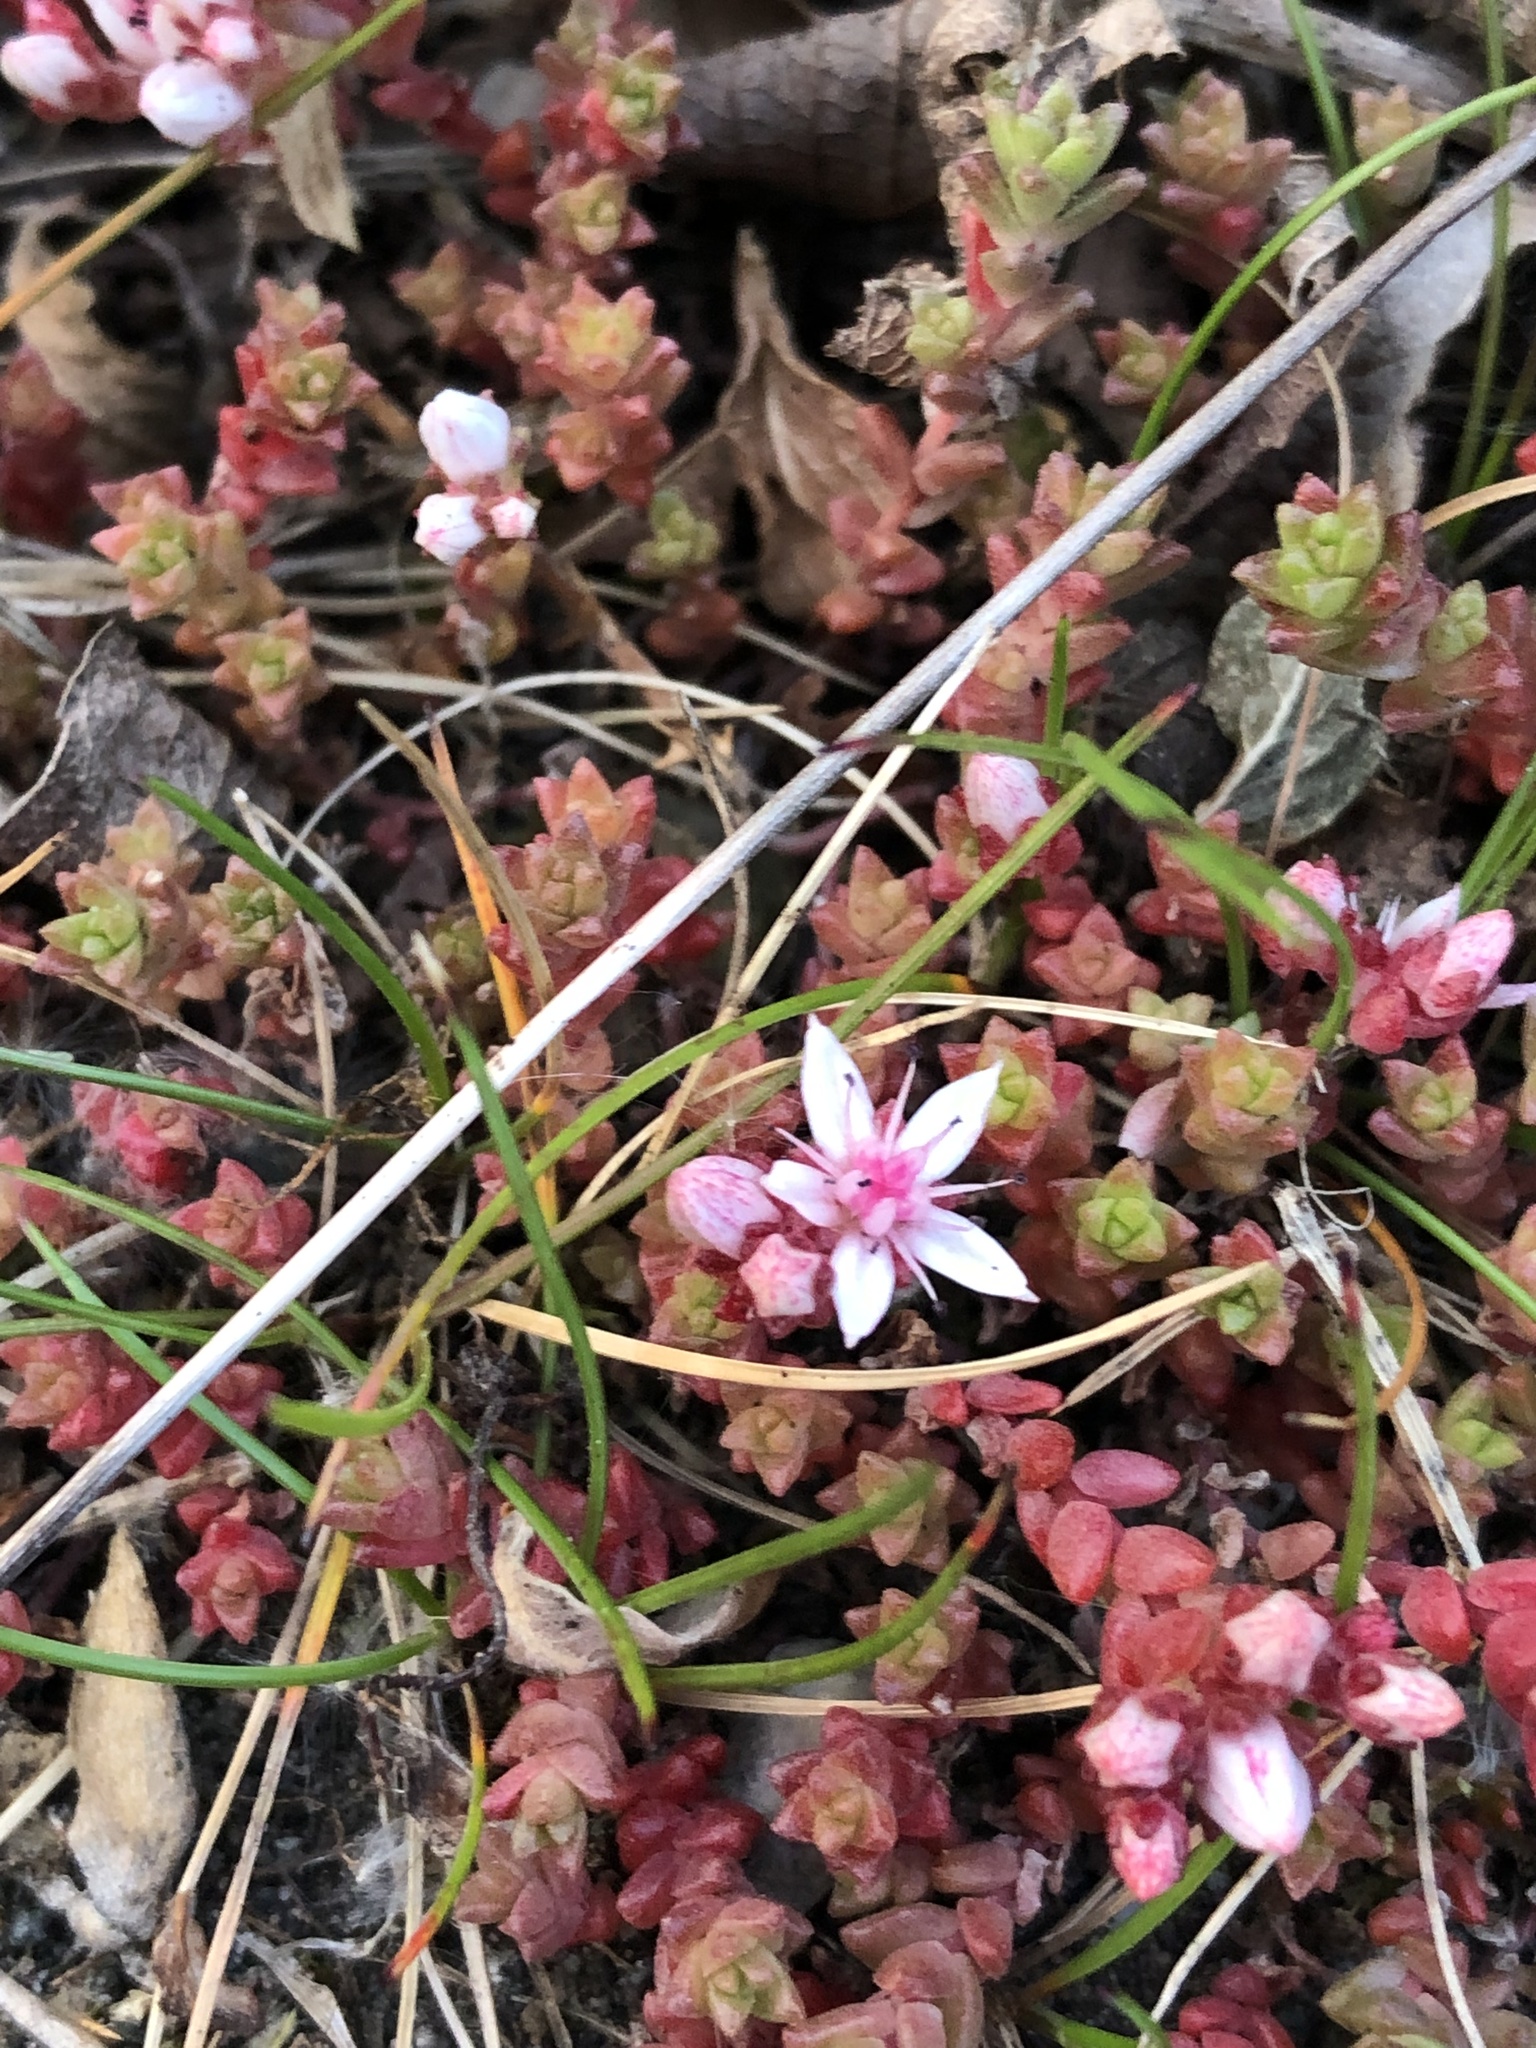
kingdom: Plantae
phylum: Tracheophyta
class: Magnoliopsida
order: Saxifragales
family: Crassulaceae
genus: Sedum
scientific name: Sedum anglicum
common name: English stonecrop
